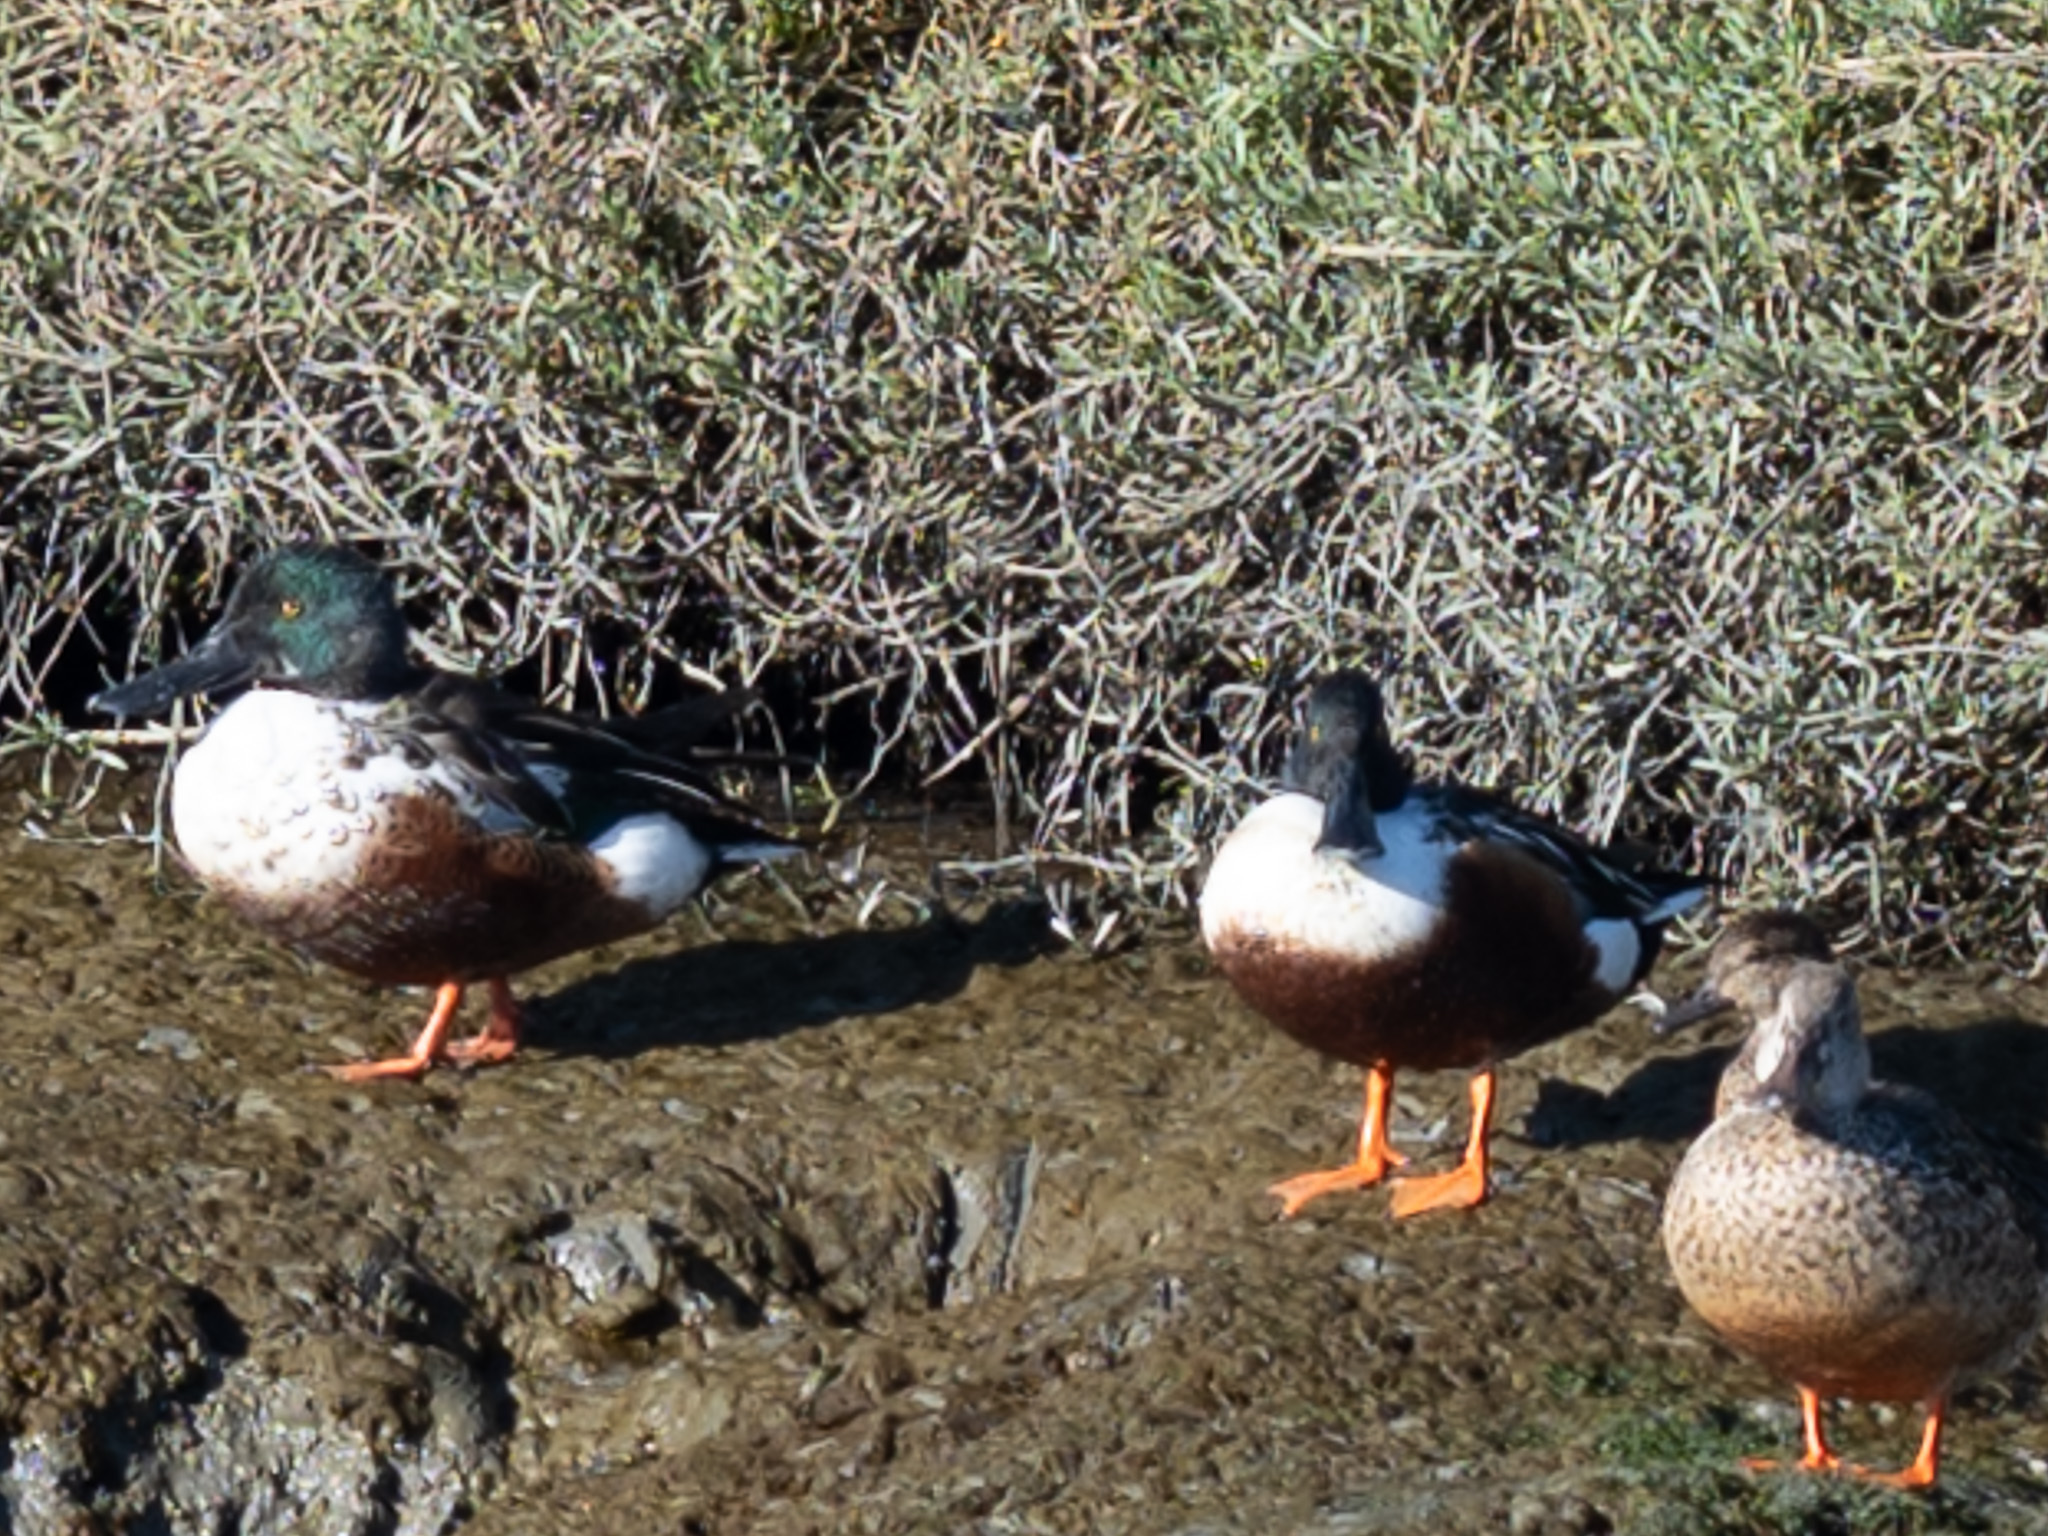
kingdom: Animalia
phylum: Chordata
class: Aves
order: Anseriformes
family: Anatidae
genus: Spatula
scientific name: Spatula clypeata
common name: Northern shoveler
